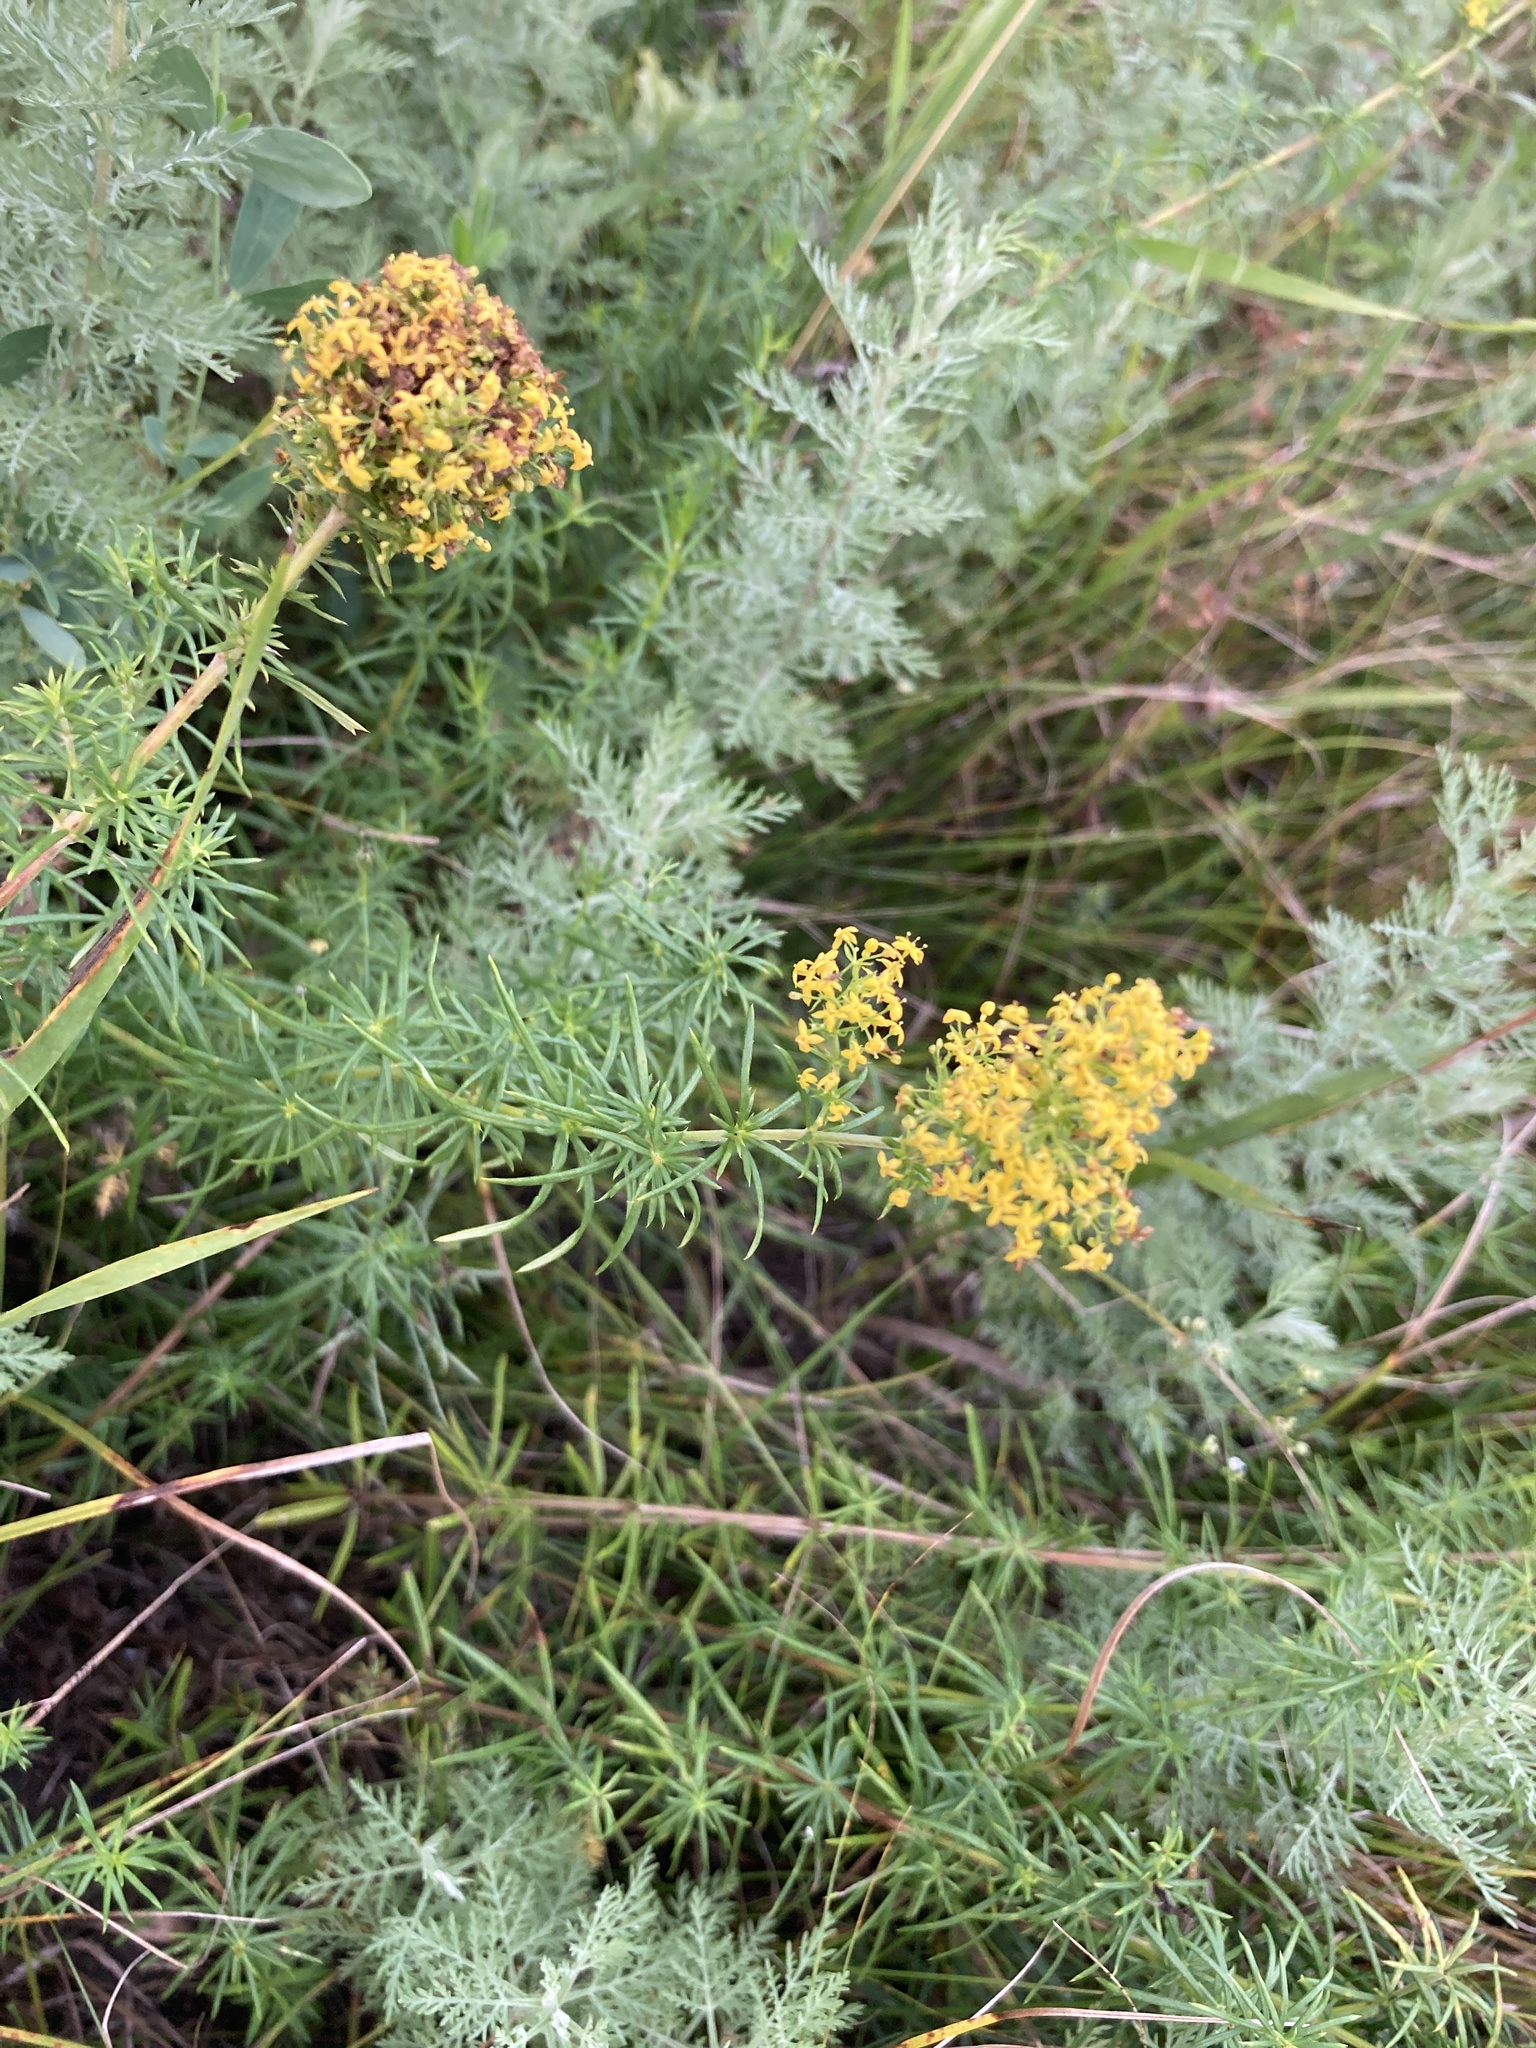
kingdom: Plantae
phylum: Tracheophyta
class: Magnoliopsida
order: Gentianales
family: Rubiaceae
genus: Galium
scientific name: Galium verum
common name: Lady's bedstraw
